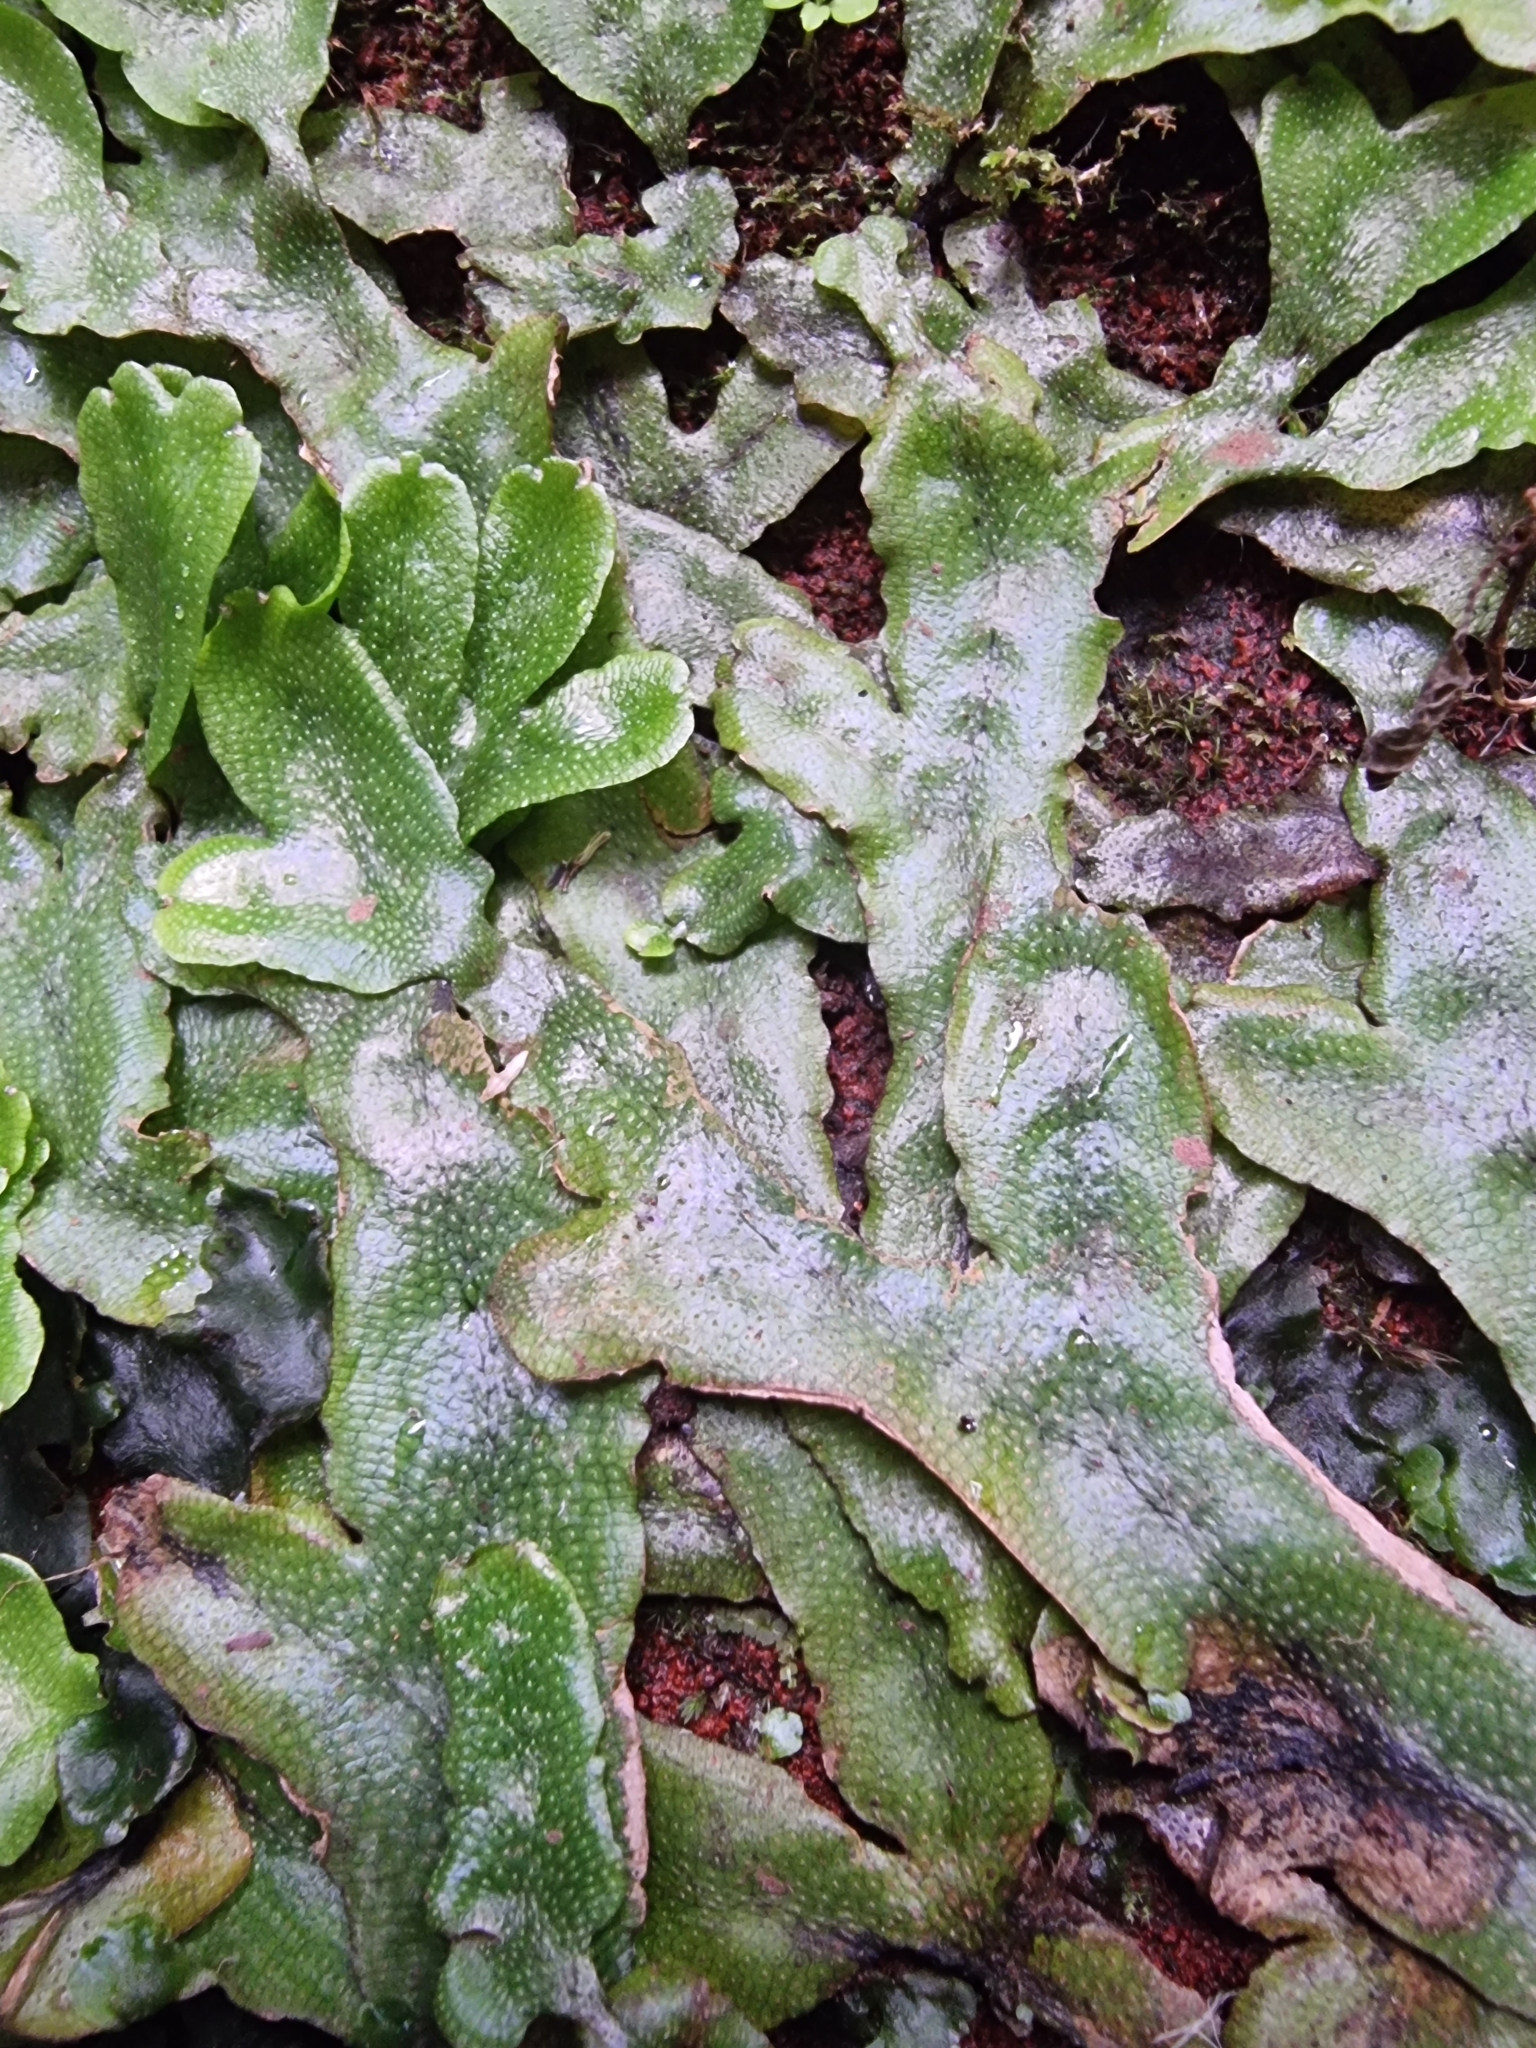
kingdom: Plantae
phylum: Marchantiophyta
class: Marchantiopsida
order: Marchantiales
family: Conocephalaceae
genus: Conocephalum
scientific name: Conocephalum conicum
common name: Great scented liverwort
